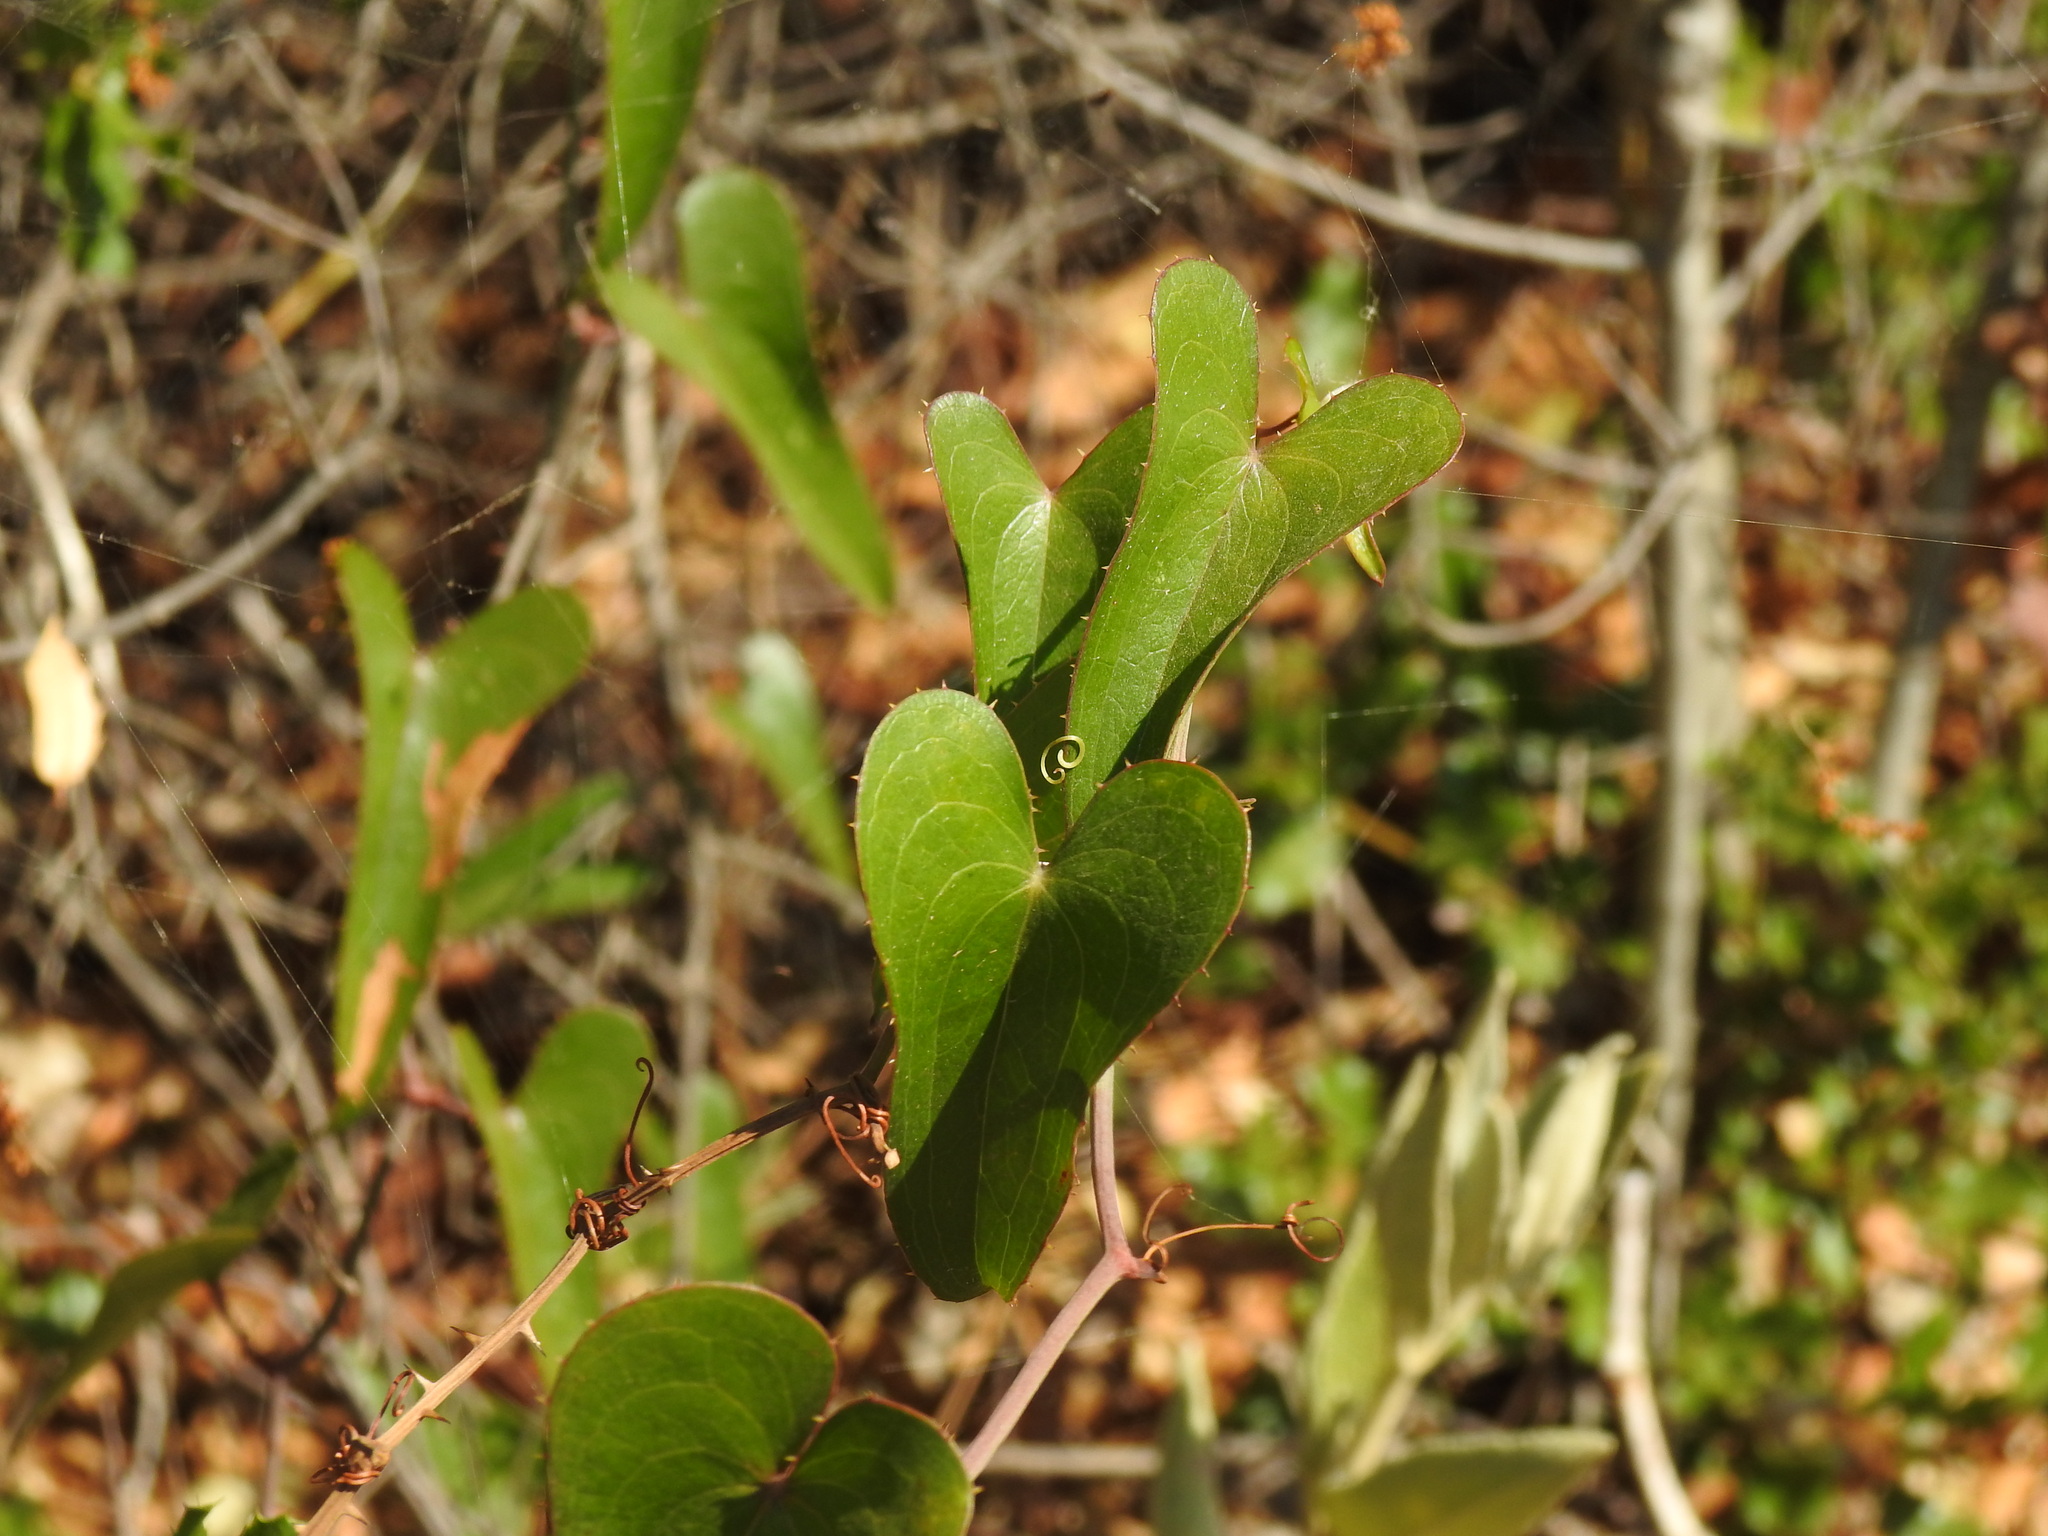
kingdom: Plantae
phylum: Tracheophyta
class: Liliopsida
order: Liliales
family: Smilacaceae
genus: Smilax
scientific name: Smilax aspera
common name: Common smilax
